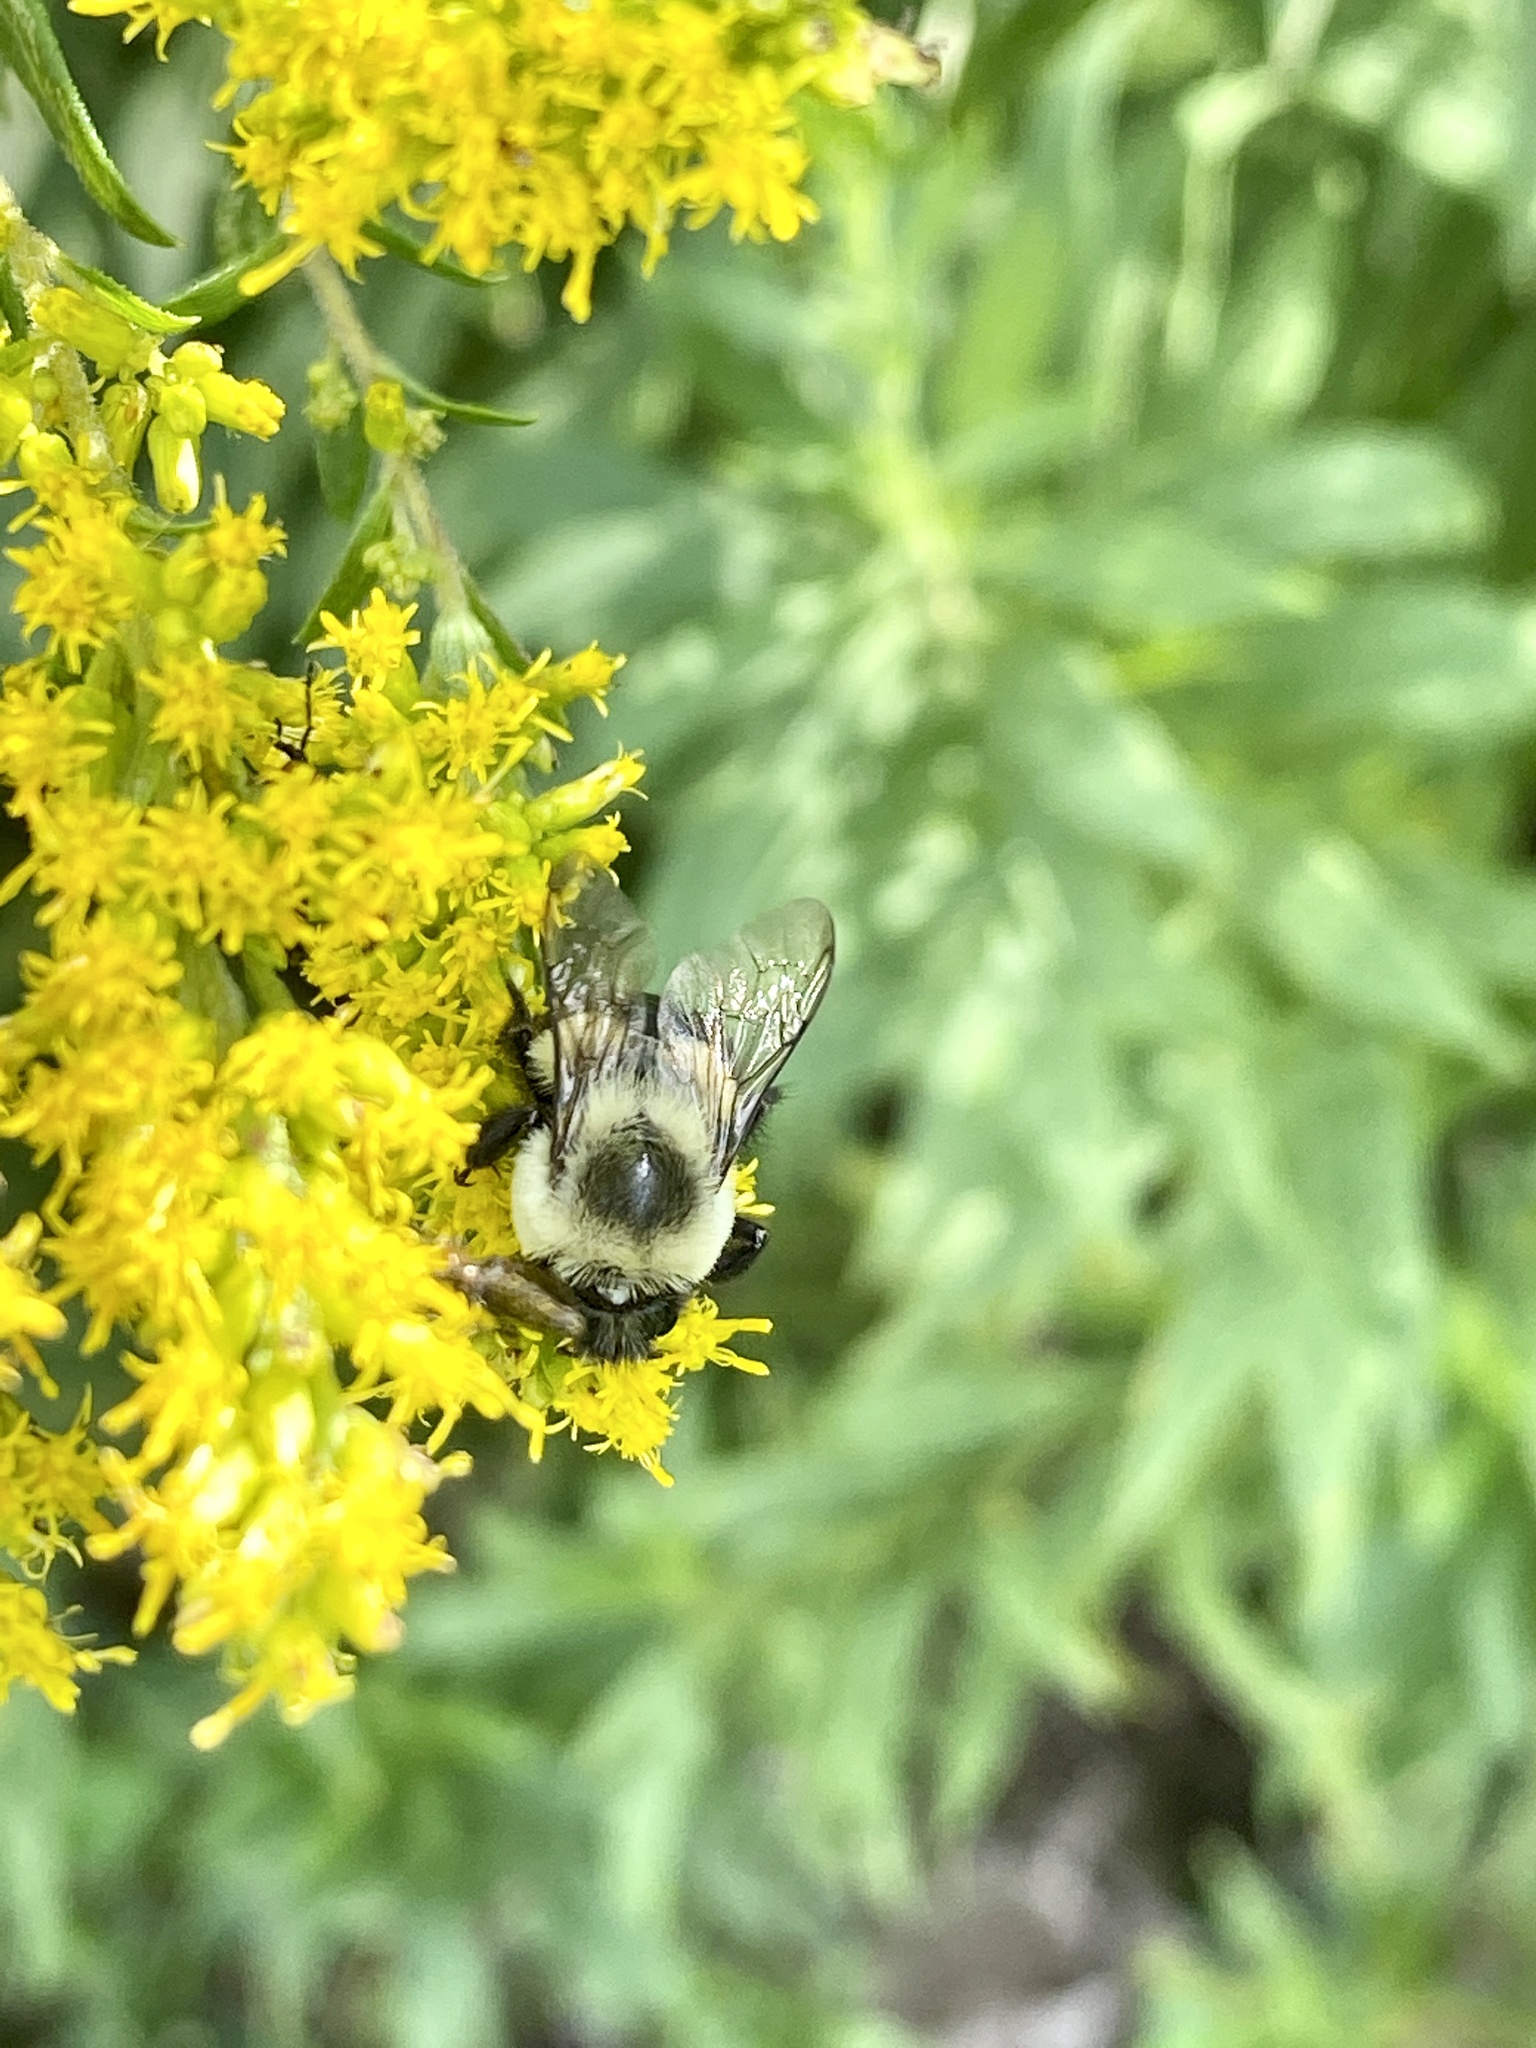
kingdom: Animalia
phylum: Arthropoda
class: Insecta
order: Hymenoptera
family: Apidae
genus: Bombus
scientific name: Bombus impatiens
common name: Common eastern bumble bee
